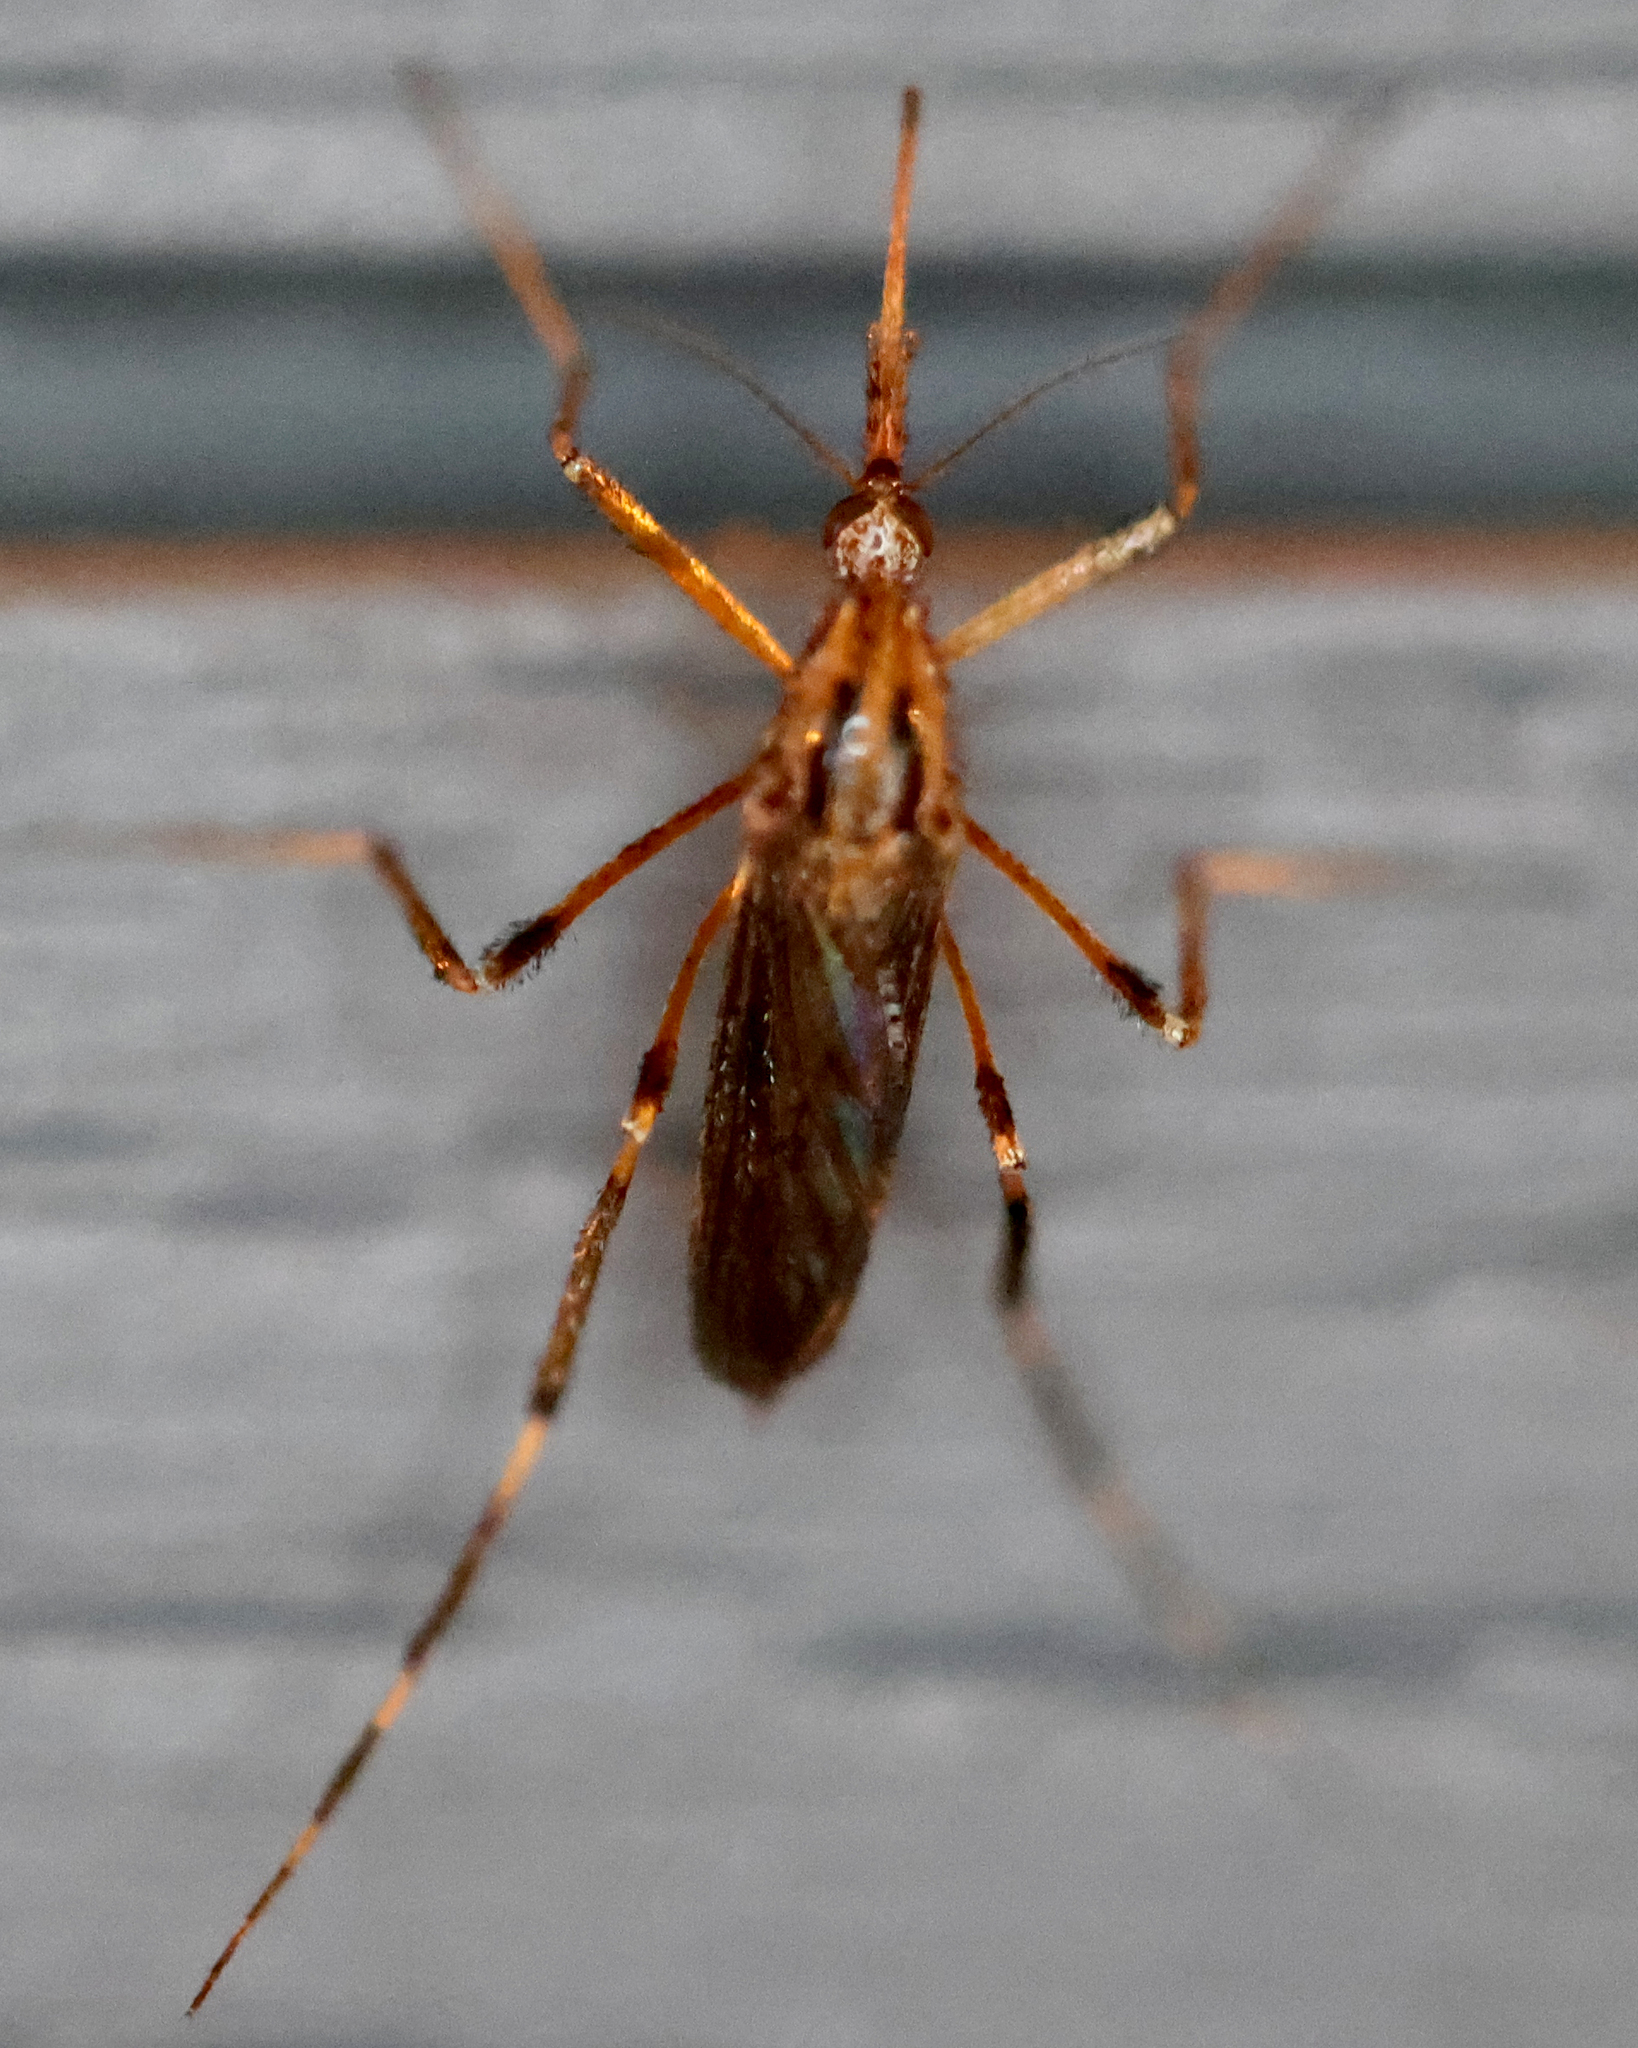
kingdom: Animalia
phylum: Arthropoda
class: Insecta
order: Diptera
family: Culicidae
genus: Psorophora
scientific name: Psorophora ciliata
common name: Gallinipper
